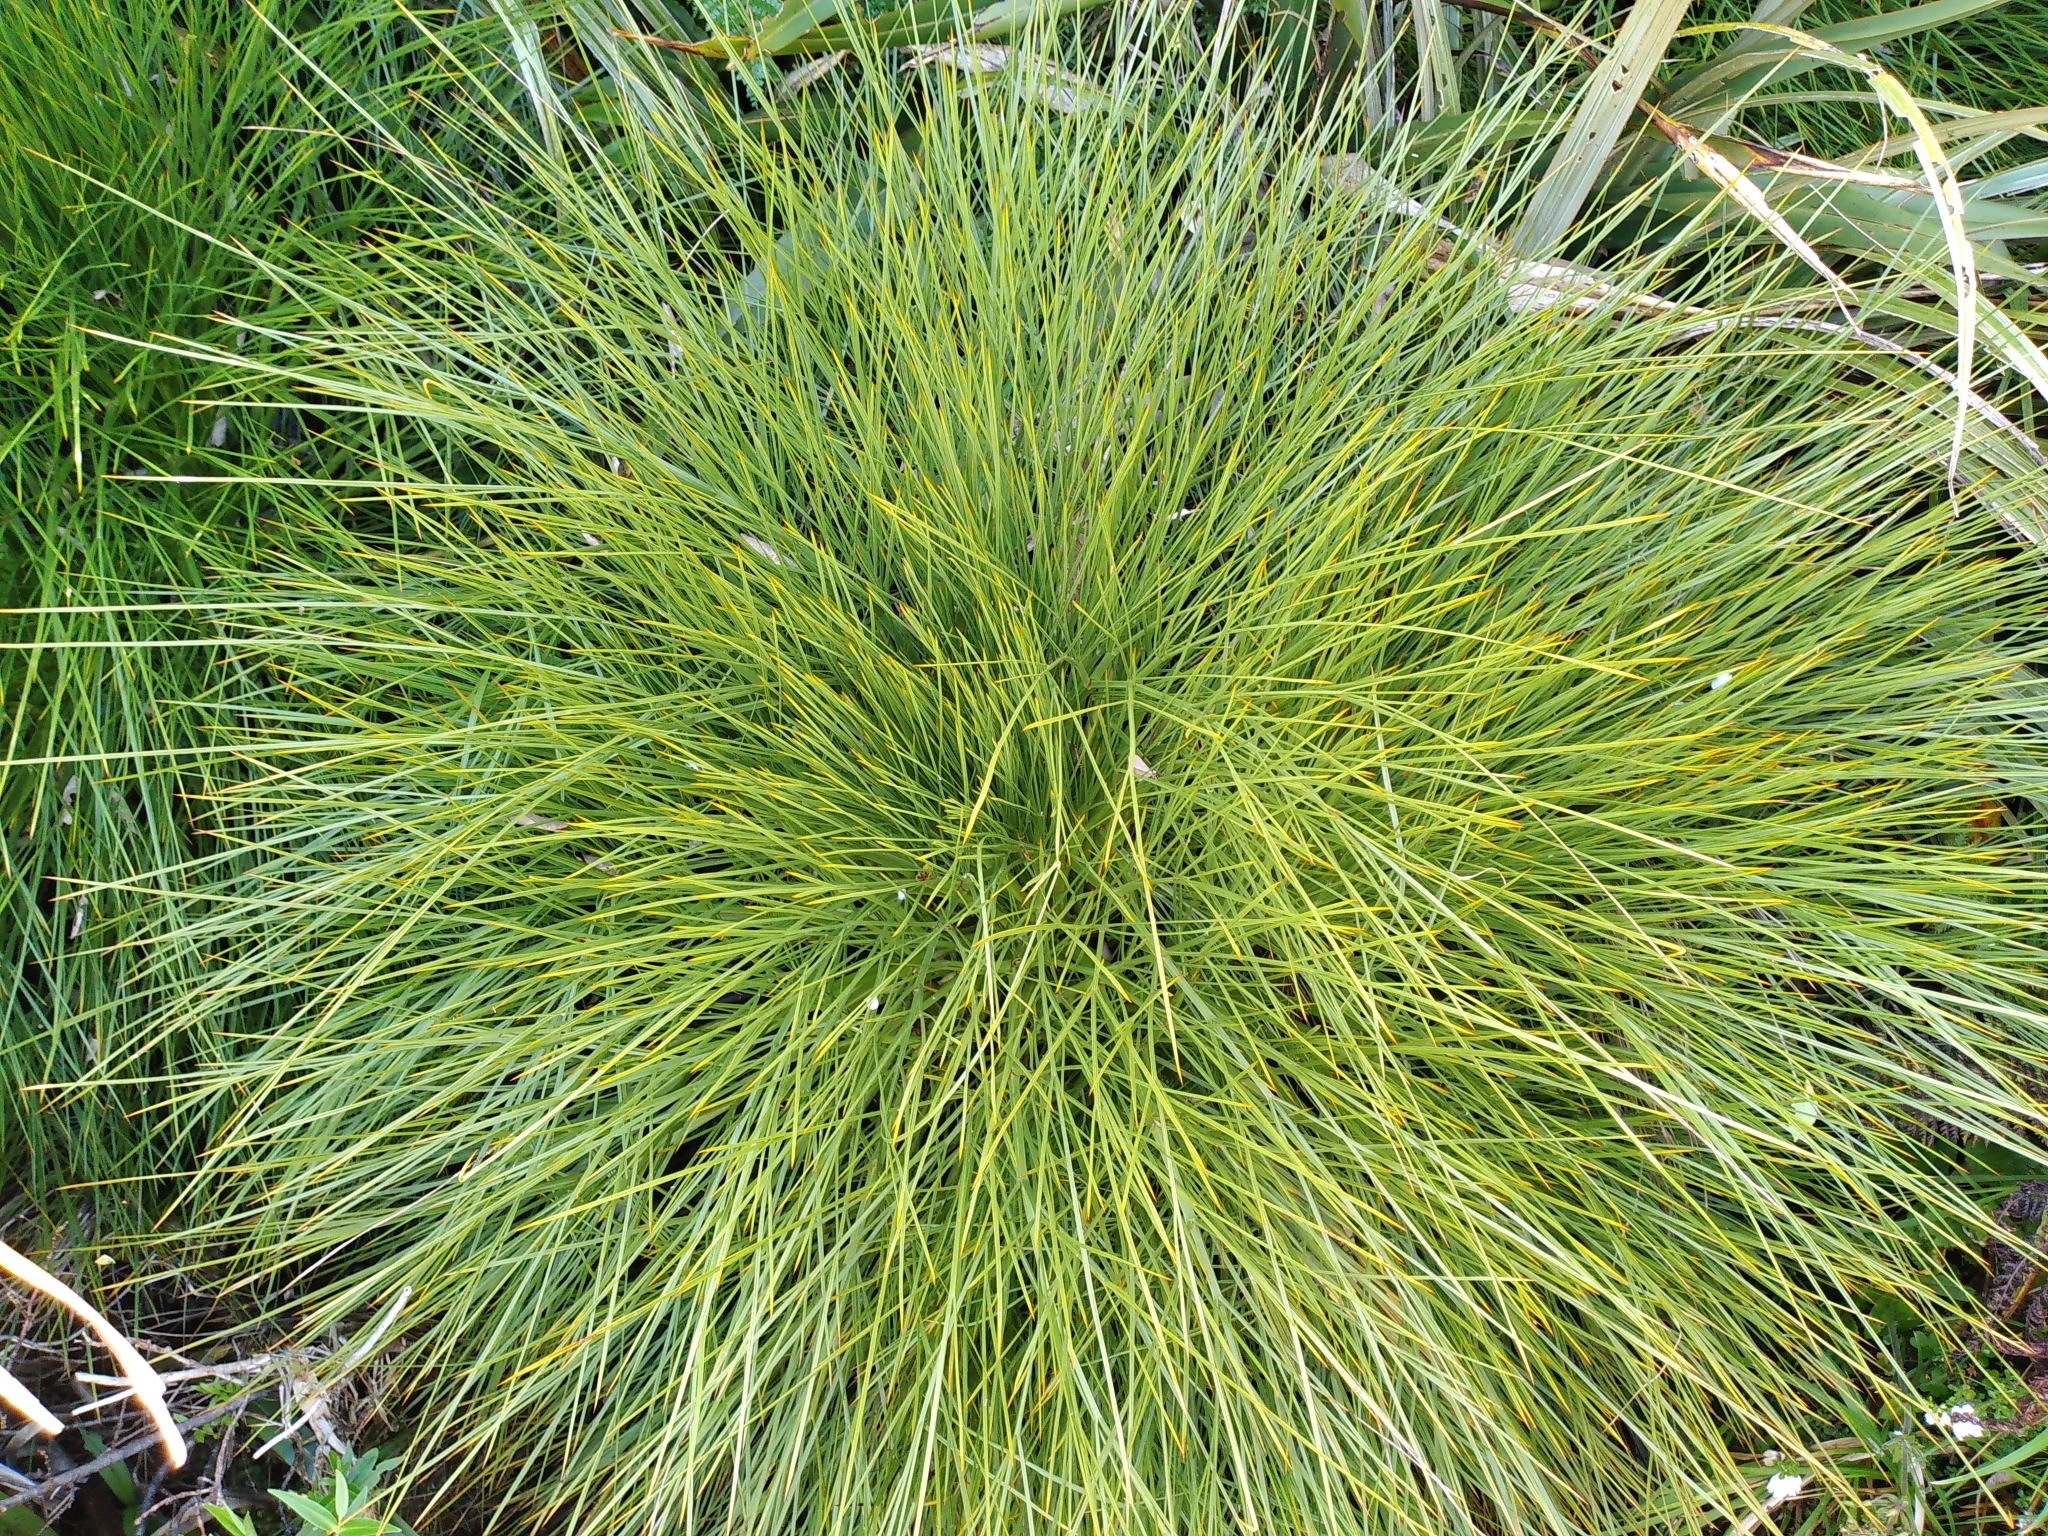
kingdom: Plantae
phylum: Tracheophyta
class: Magnoliopsida
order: Apiales
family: Apiaceae
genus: Aciphylla
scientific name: Aciphylla squarrosa
